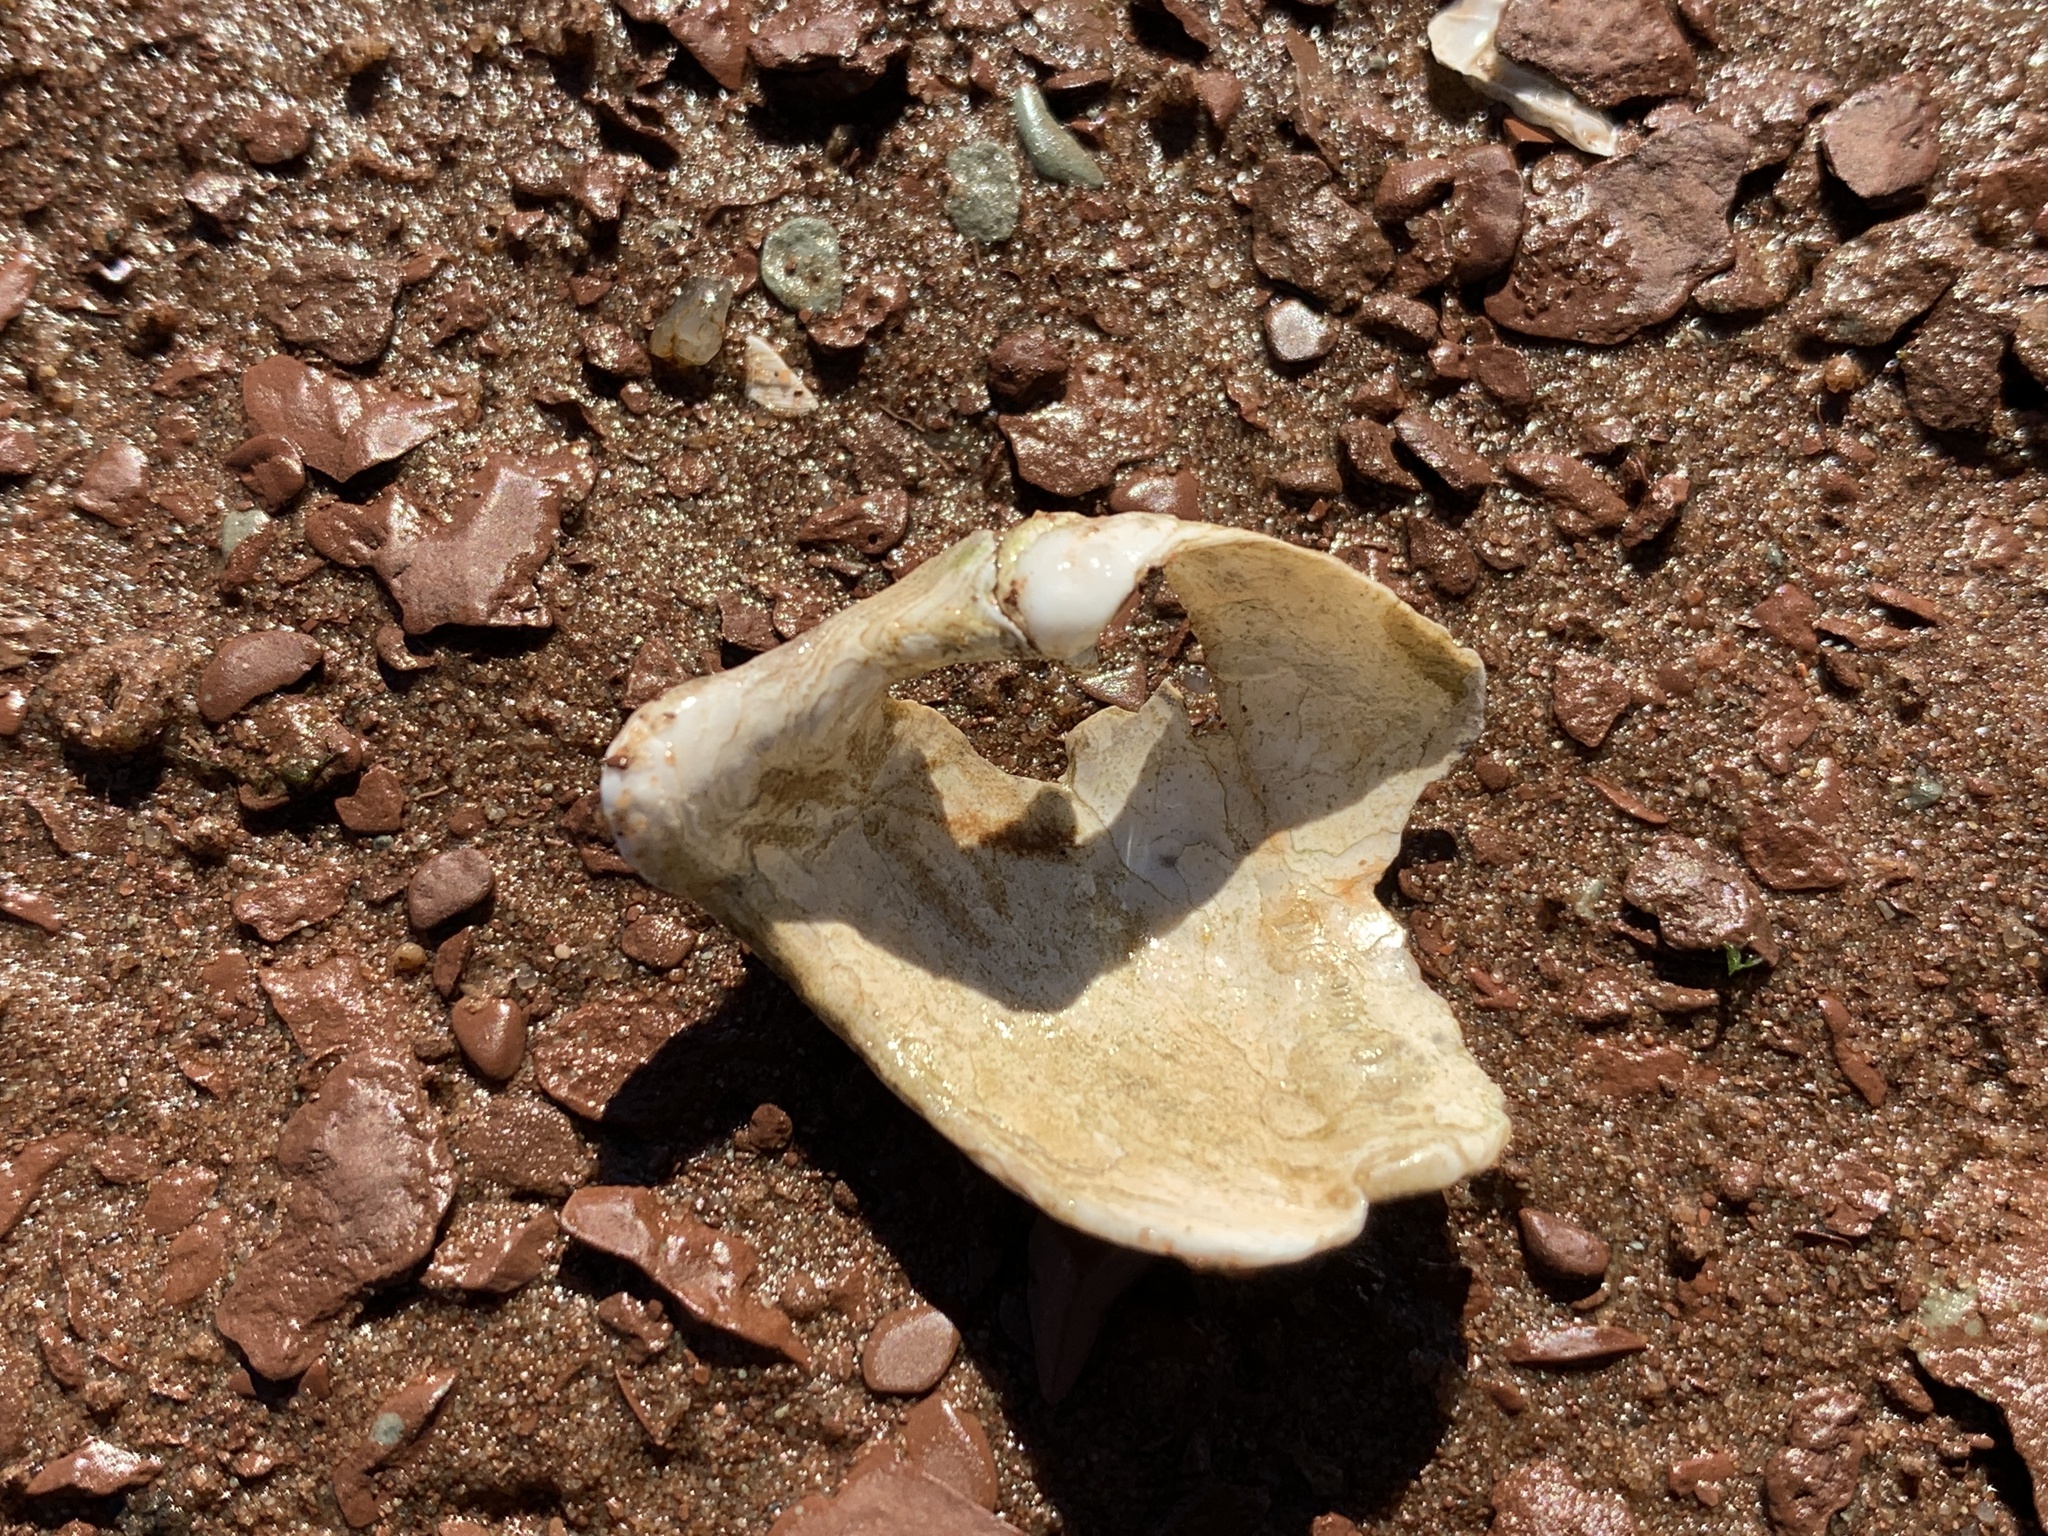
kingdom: Animalia
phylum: Mollusca
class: Bivalvia
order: Myida
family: Pholadidae
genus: Zirfaea
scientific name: Zirfaea crispata
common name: Oval piddock
